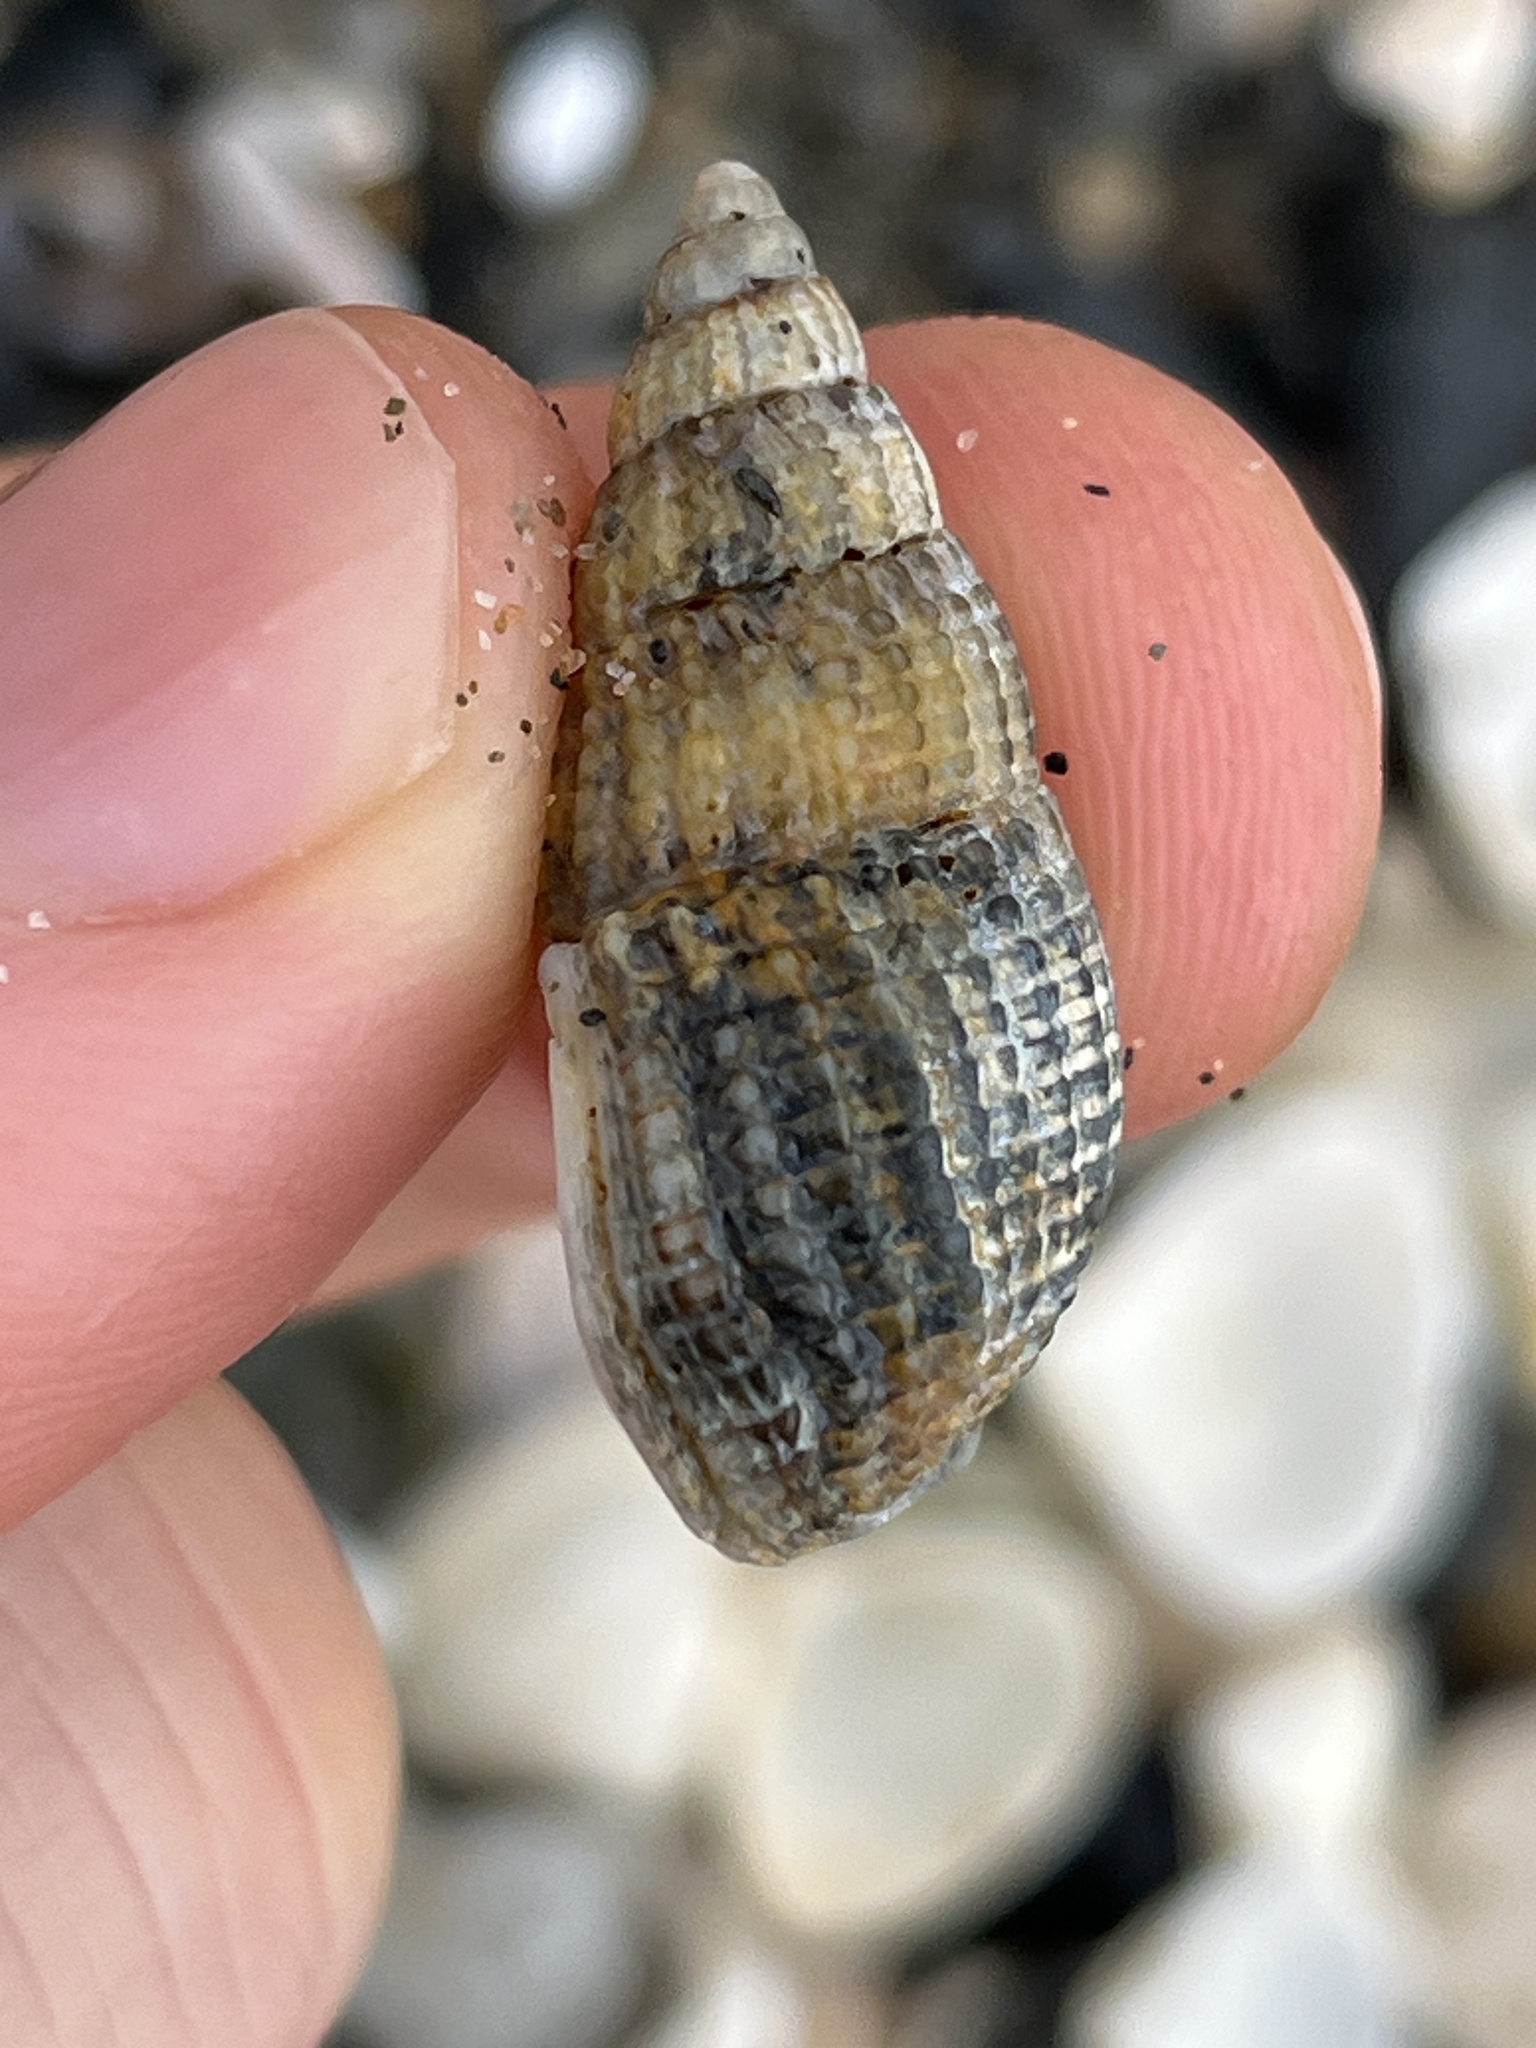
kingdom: Animalia
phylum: Mollusca
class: Gastropoda
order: Neogastropoda
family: Nassariidae
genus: Tritia
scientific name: Tritia reticulata
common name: Netted dog whelk
